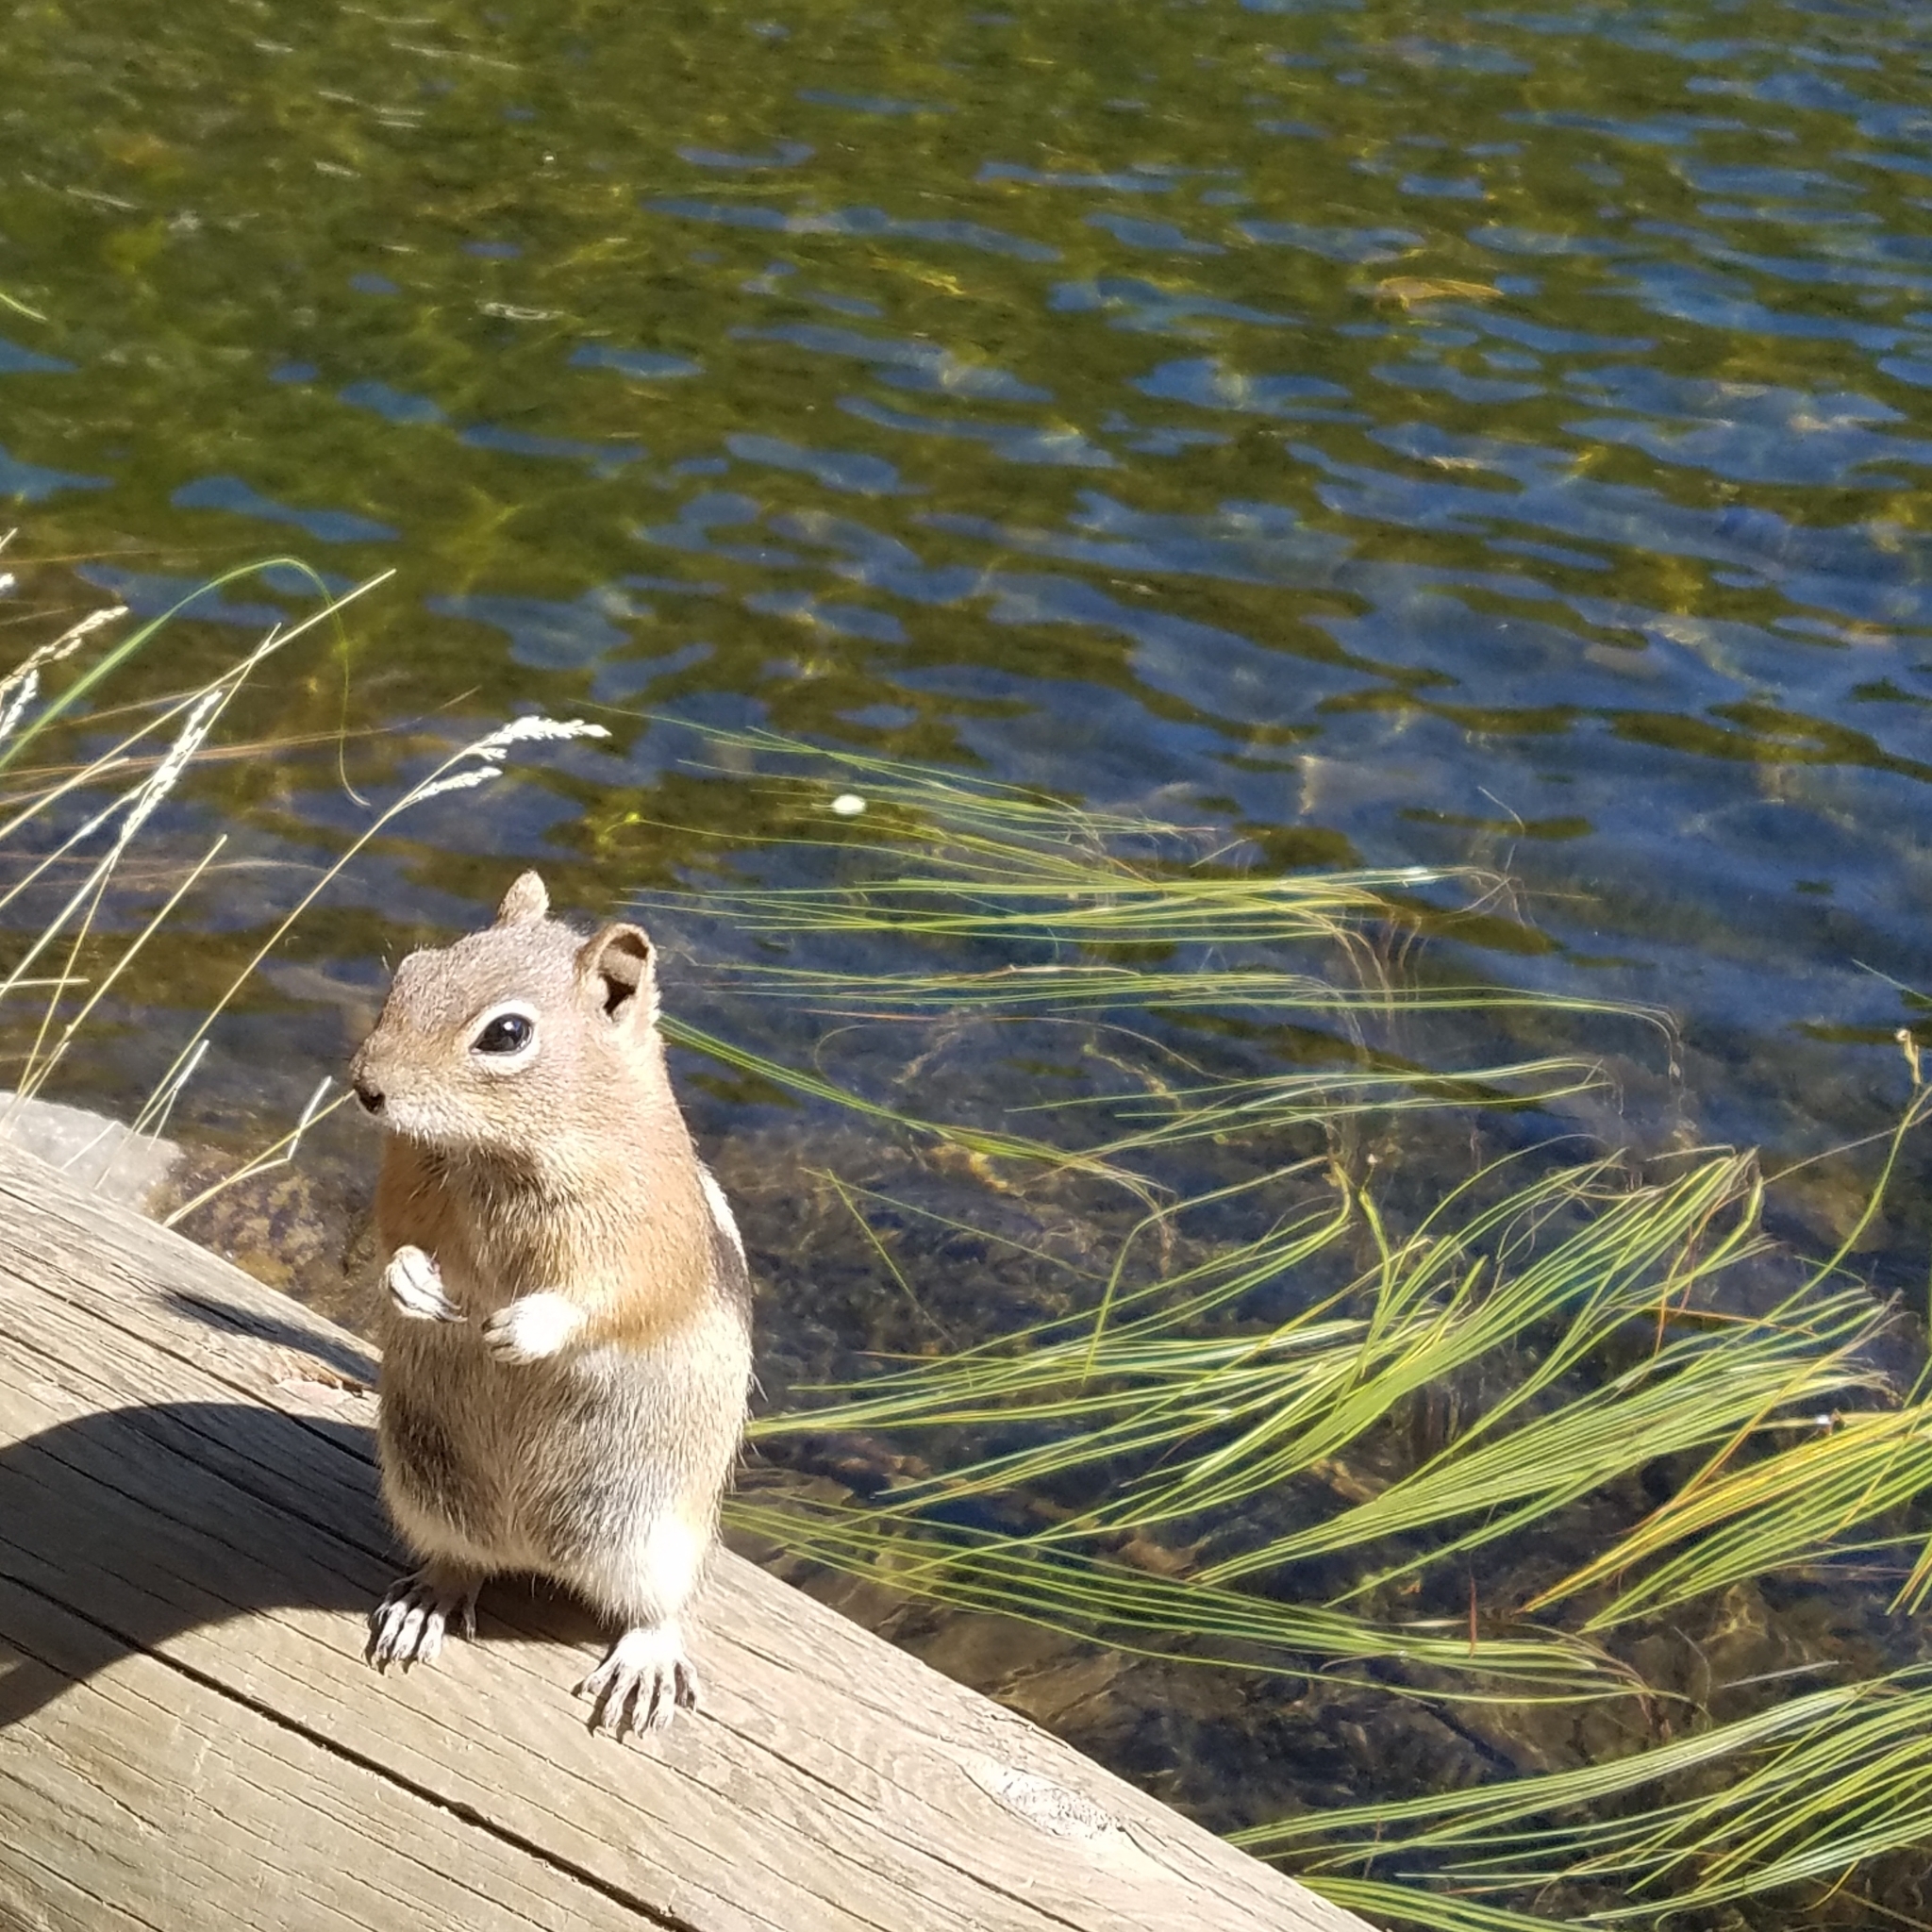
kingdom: Animalia
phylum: Chordata
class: Mammalia
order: Rodentia
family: Sciuridae
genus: Callospermophilus
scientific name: Callospermophilus lateralis
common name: Golden-mantled ground squirrel
